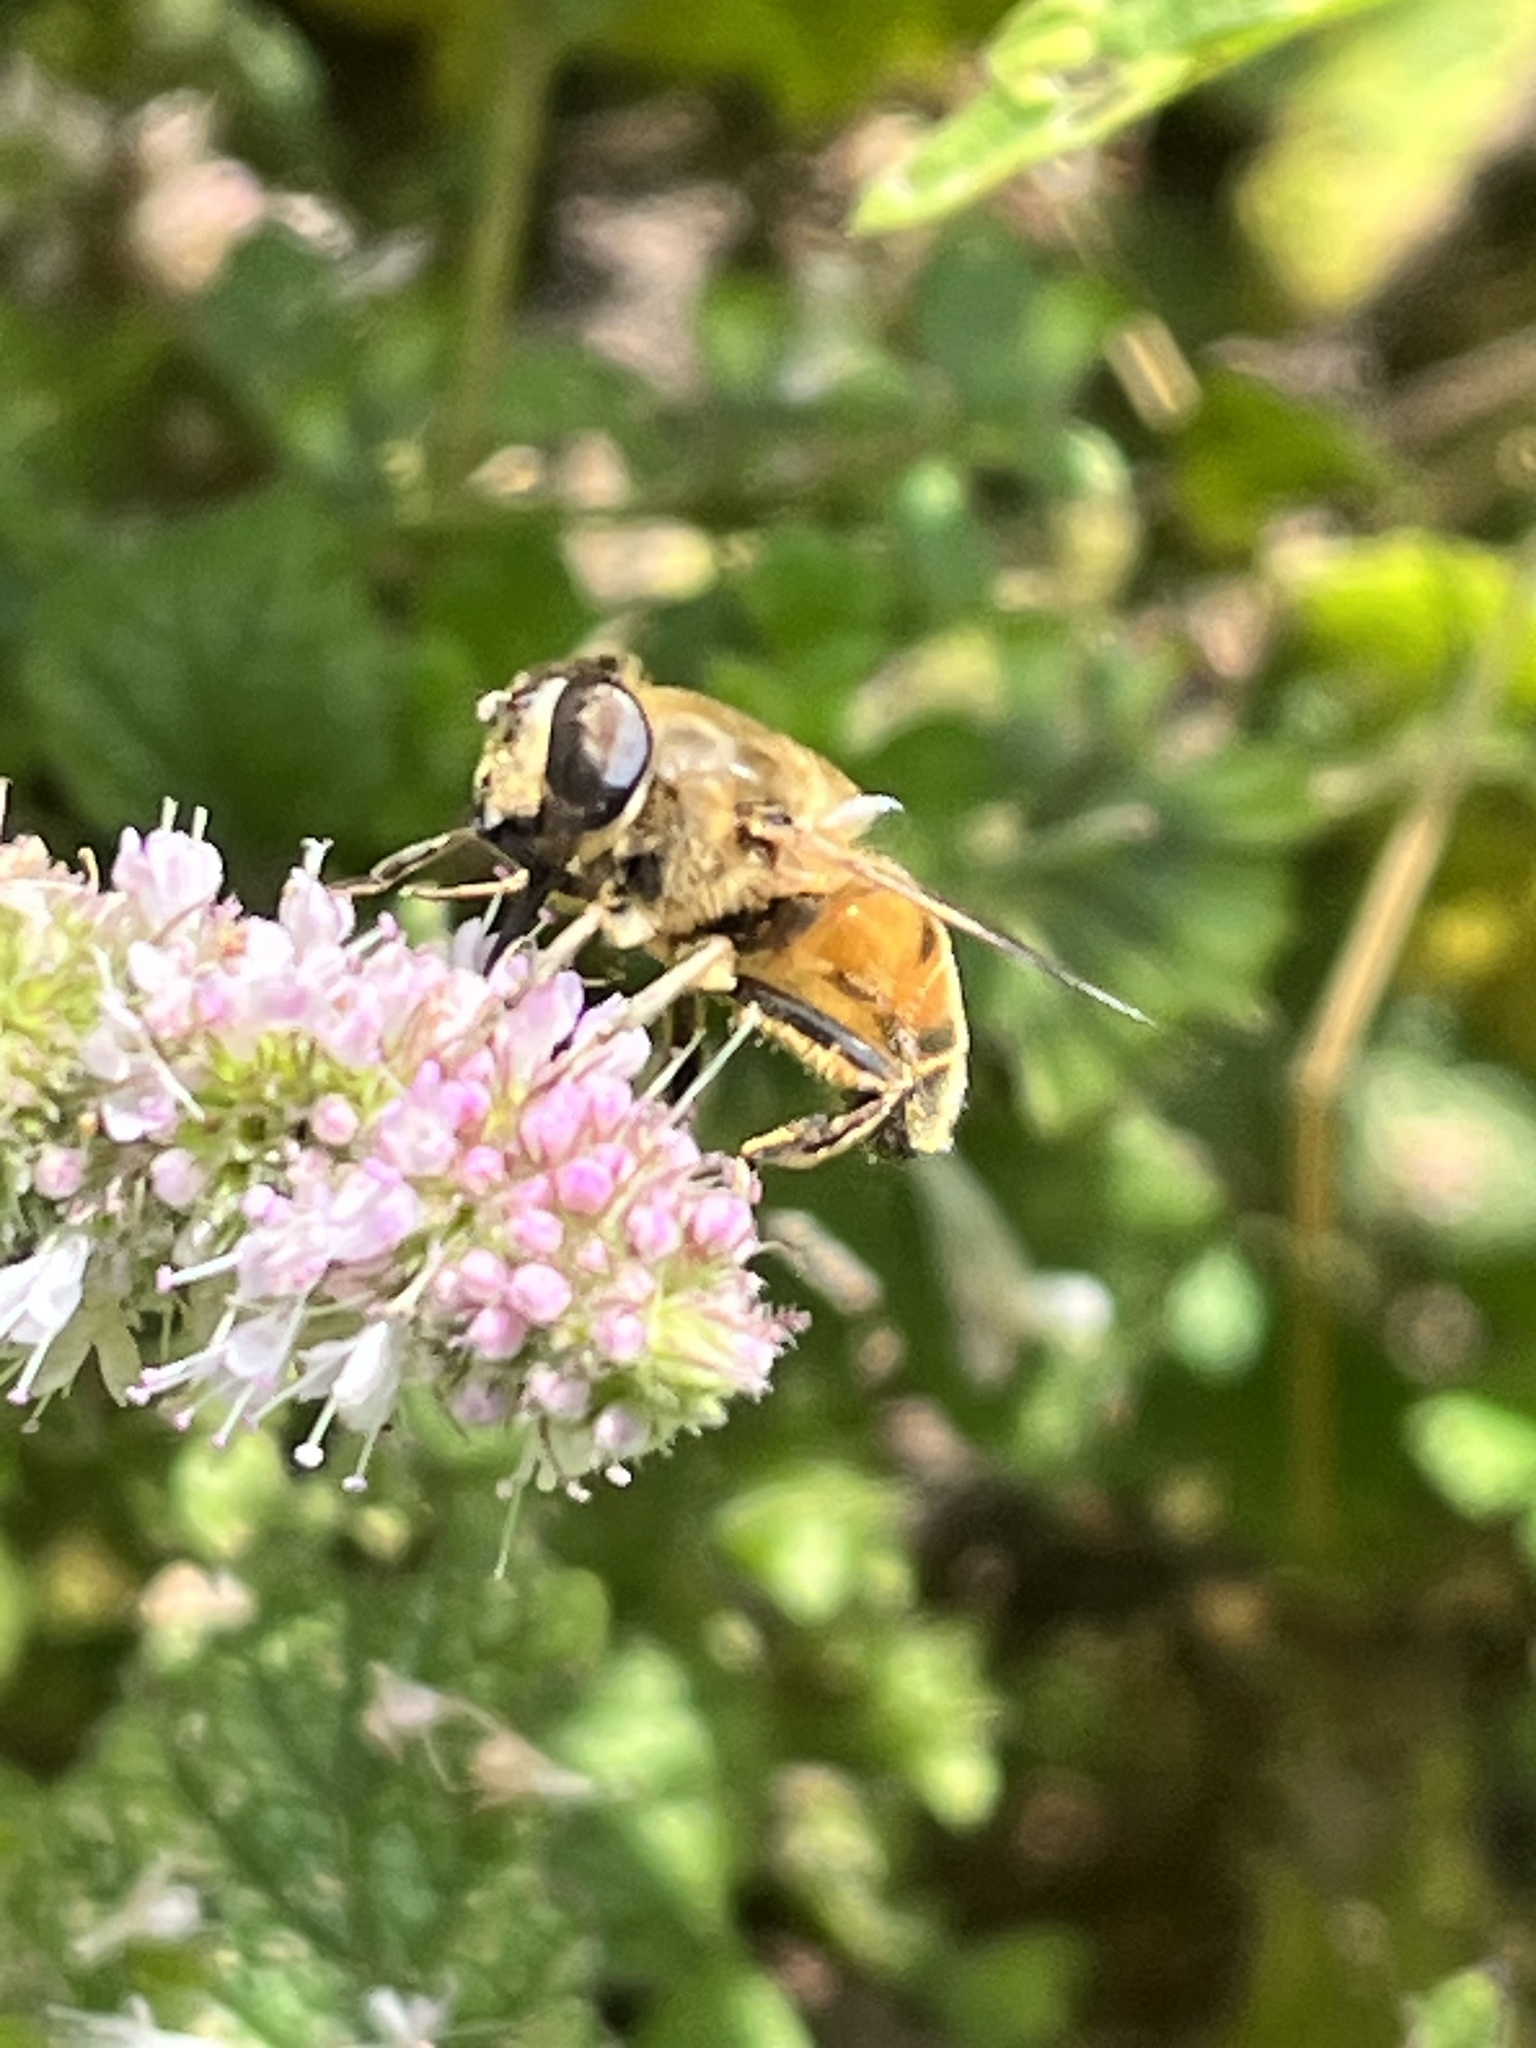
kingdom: Animalia
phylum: Arthropoda
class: Insecta
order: Diptera
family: Syrphidae
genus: Eristalis
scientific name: Eristalis tenax
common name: Drone fly
